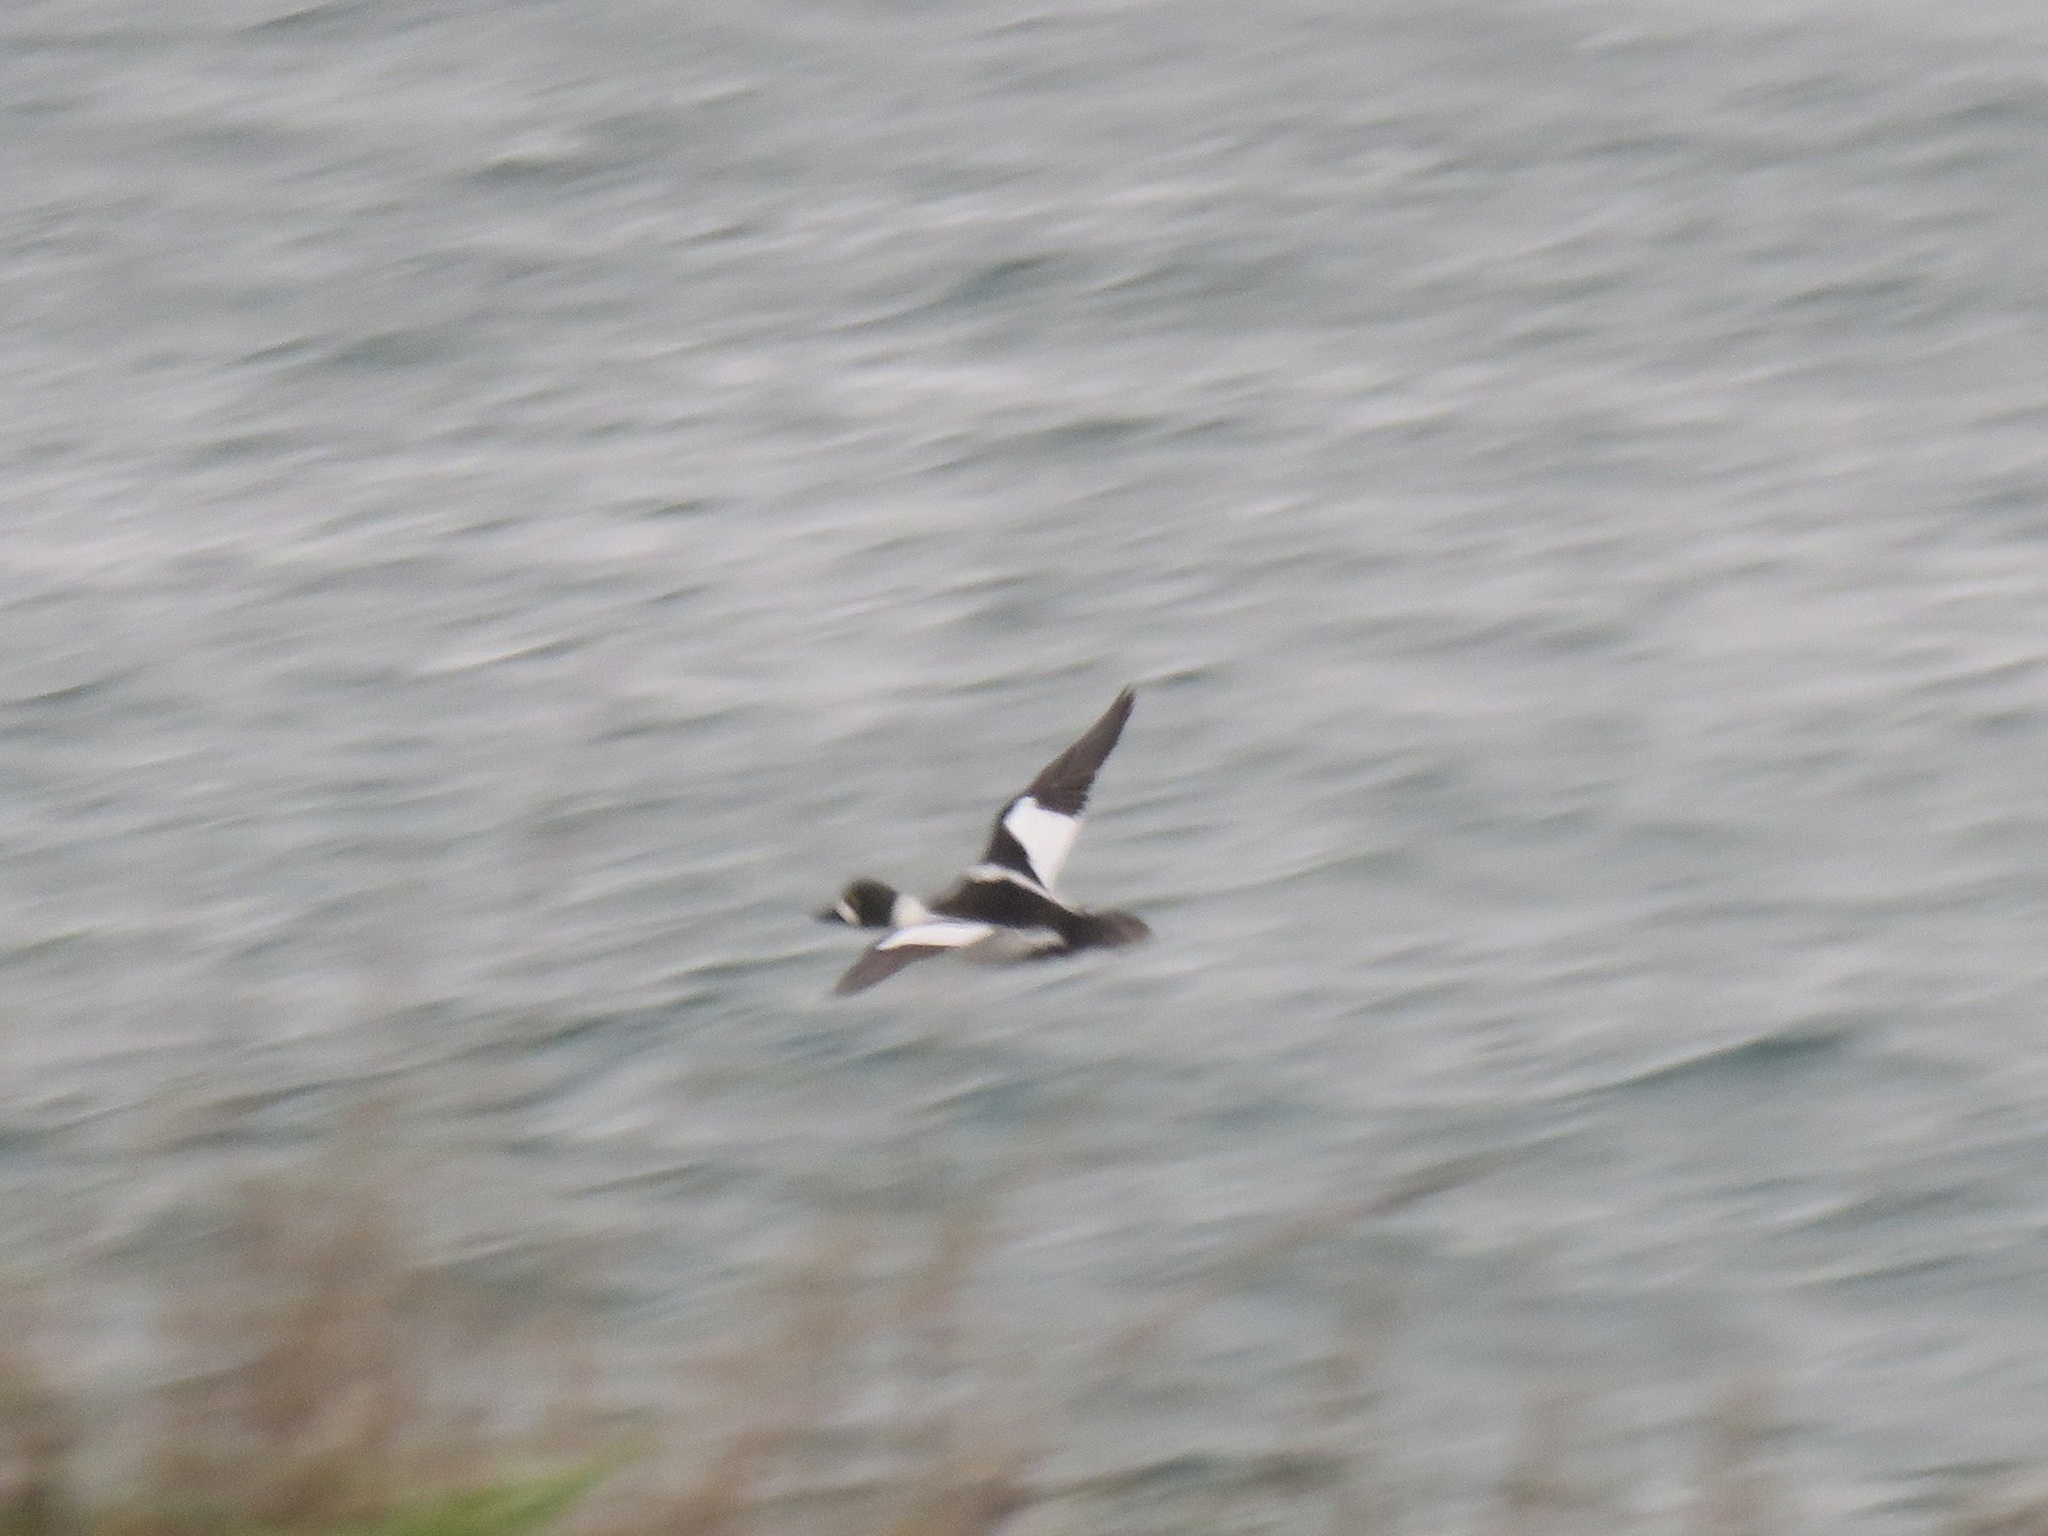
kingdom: Animalia
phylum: Chordata
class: Aves
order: Anseriformes
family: Anatidae
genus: Bucephala
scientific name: Bucephala clangula
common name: Common goldeneye
